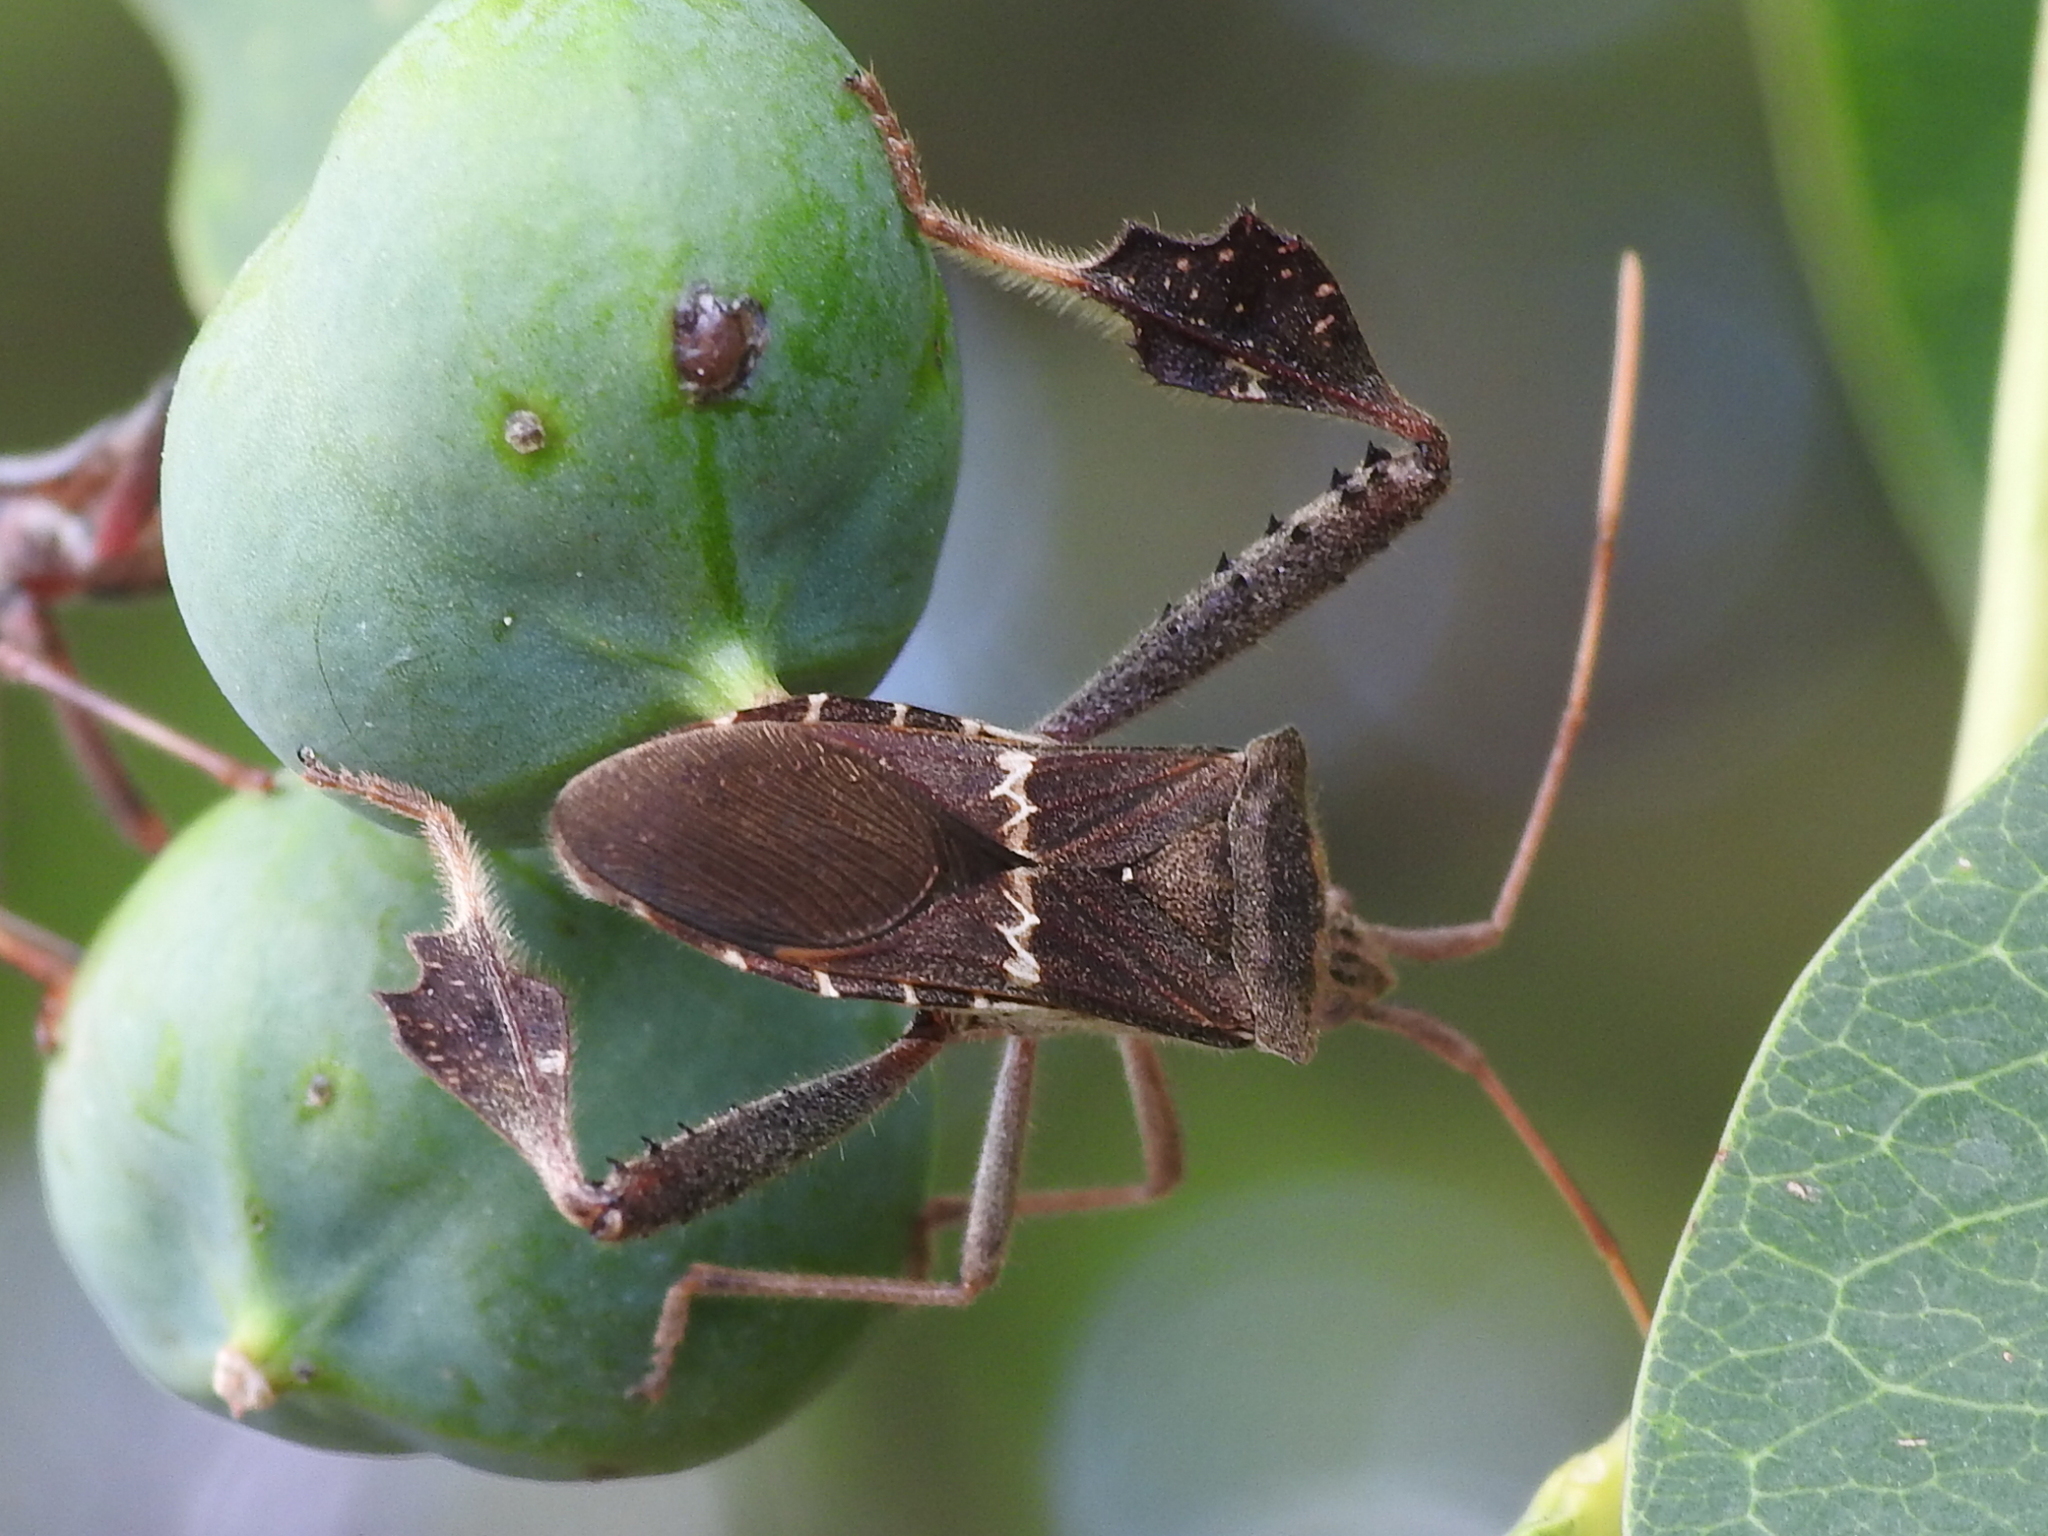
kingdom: Animalia
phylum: Arthropoda
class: Insecta
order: Hemiptera
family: Coreidae
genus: Leptoglossus
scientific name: Leptoglossus zonatus
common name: Large-legged bug
